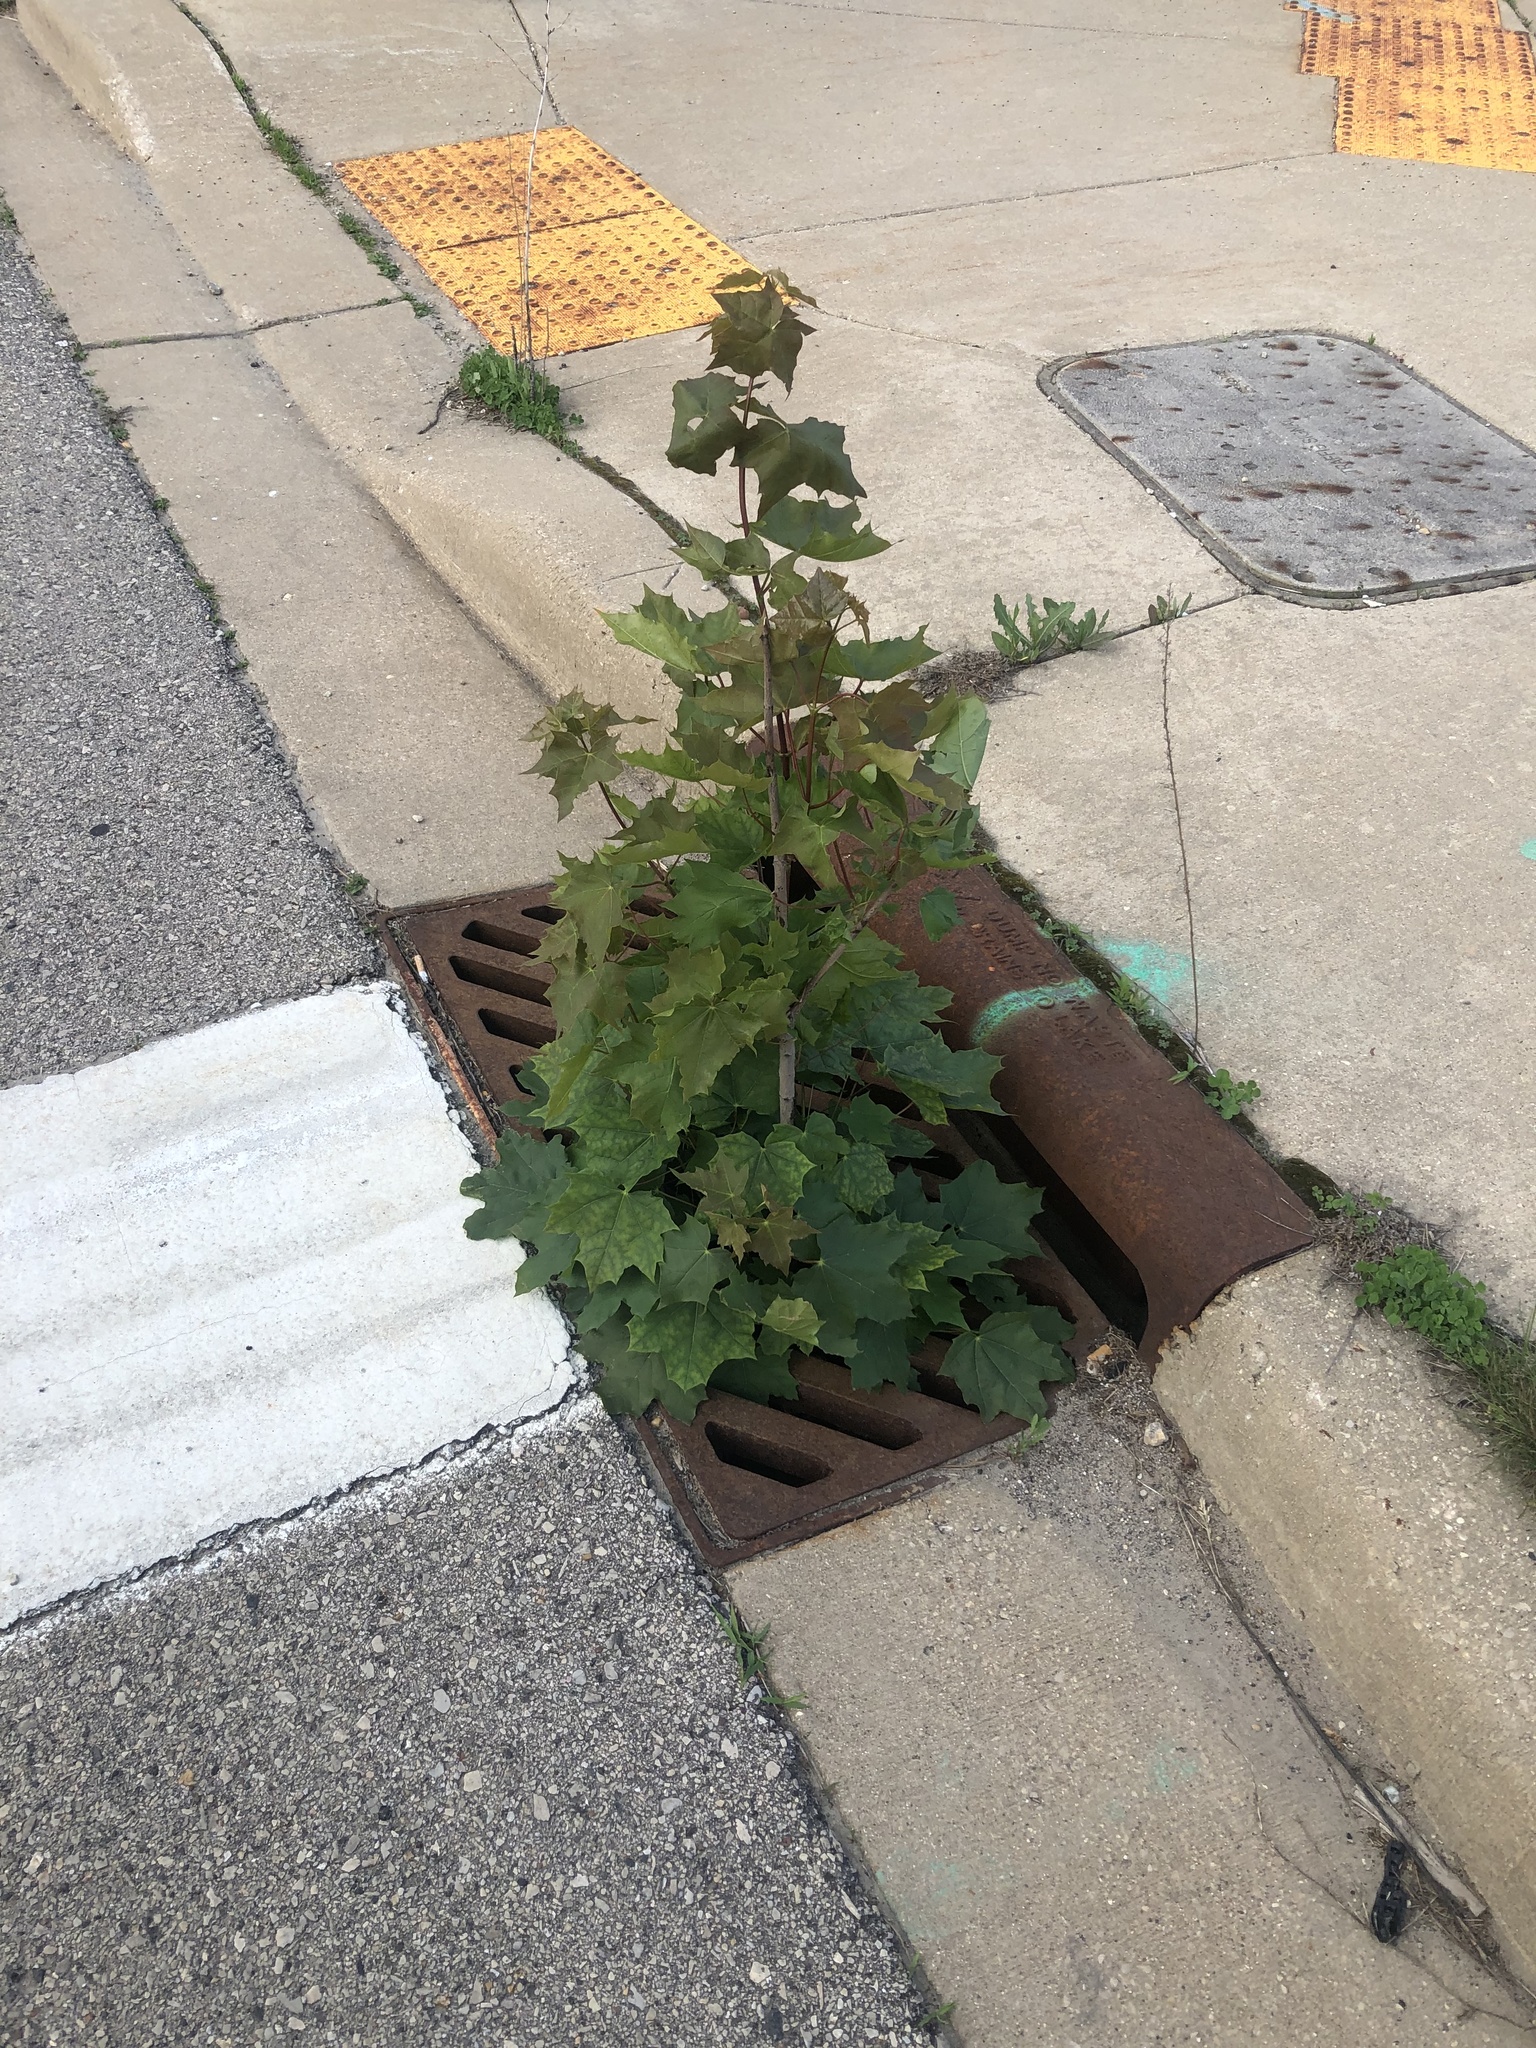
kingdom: Plantae
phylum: Tracheophyta
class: Magnoliopsida
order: Sapindales
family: Sapindaceae
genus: Acer
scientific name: Acer platanoides
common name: Norway maple
